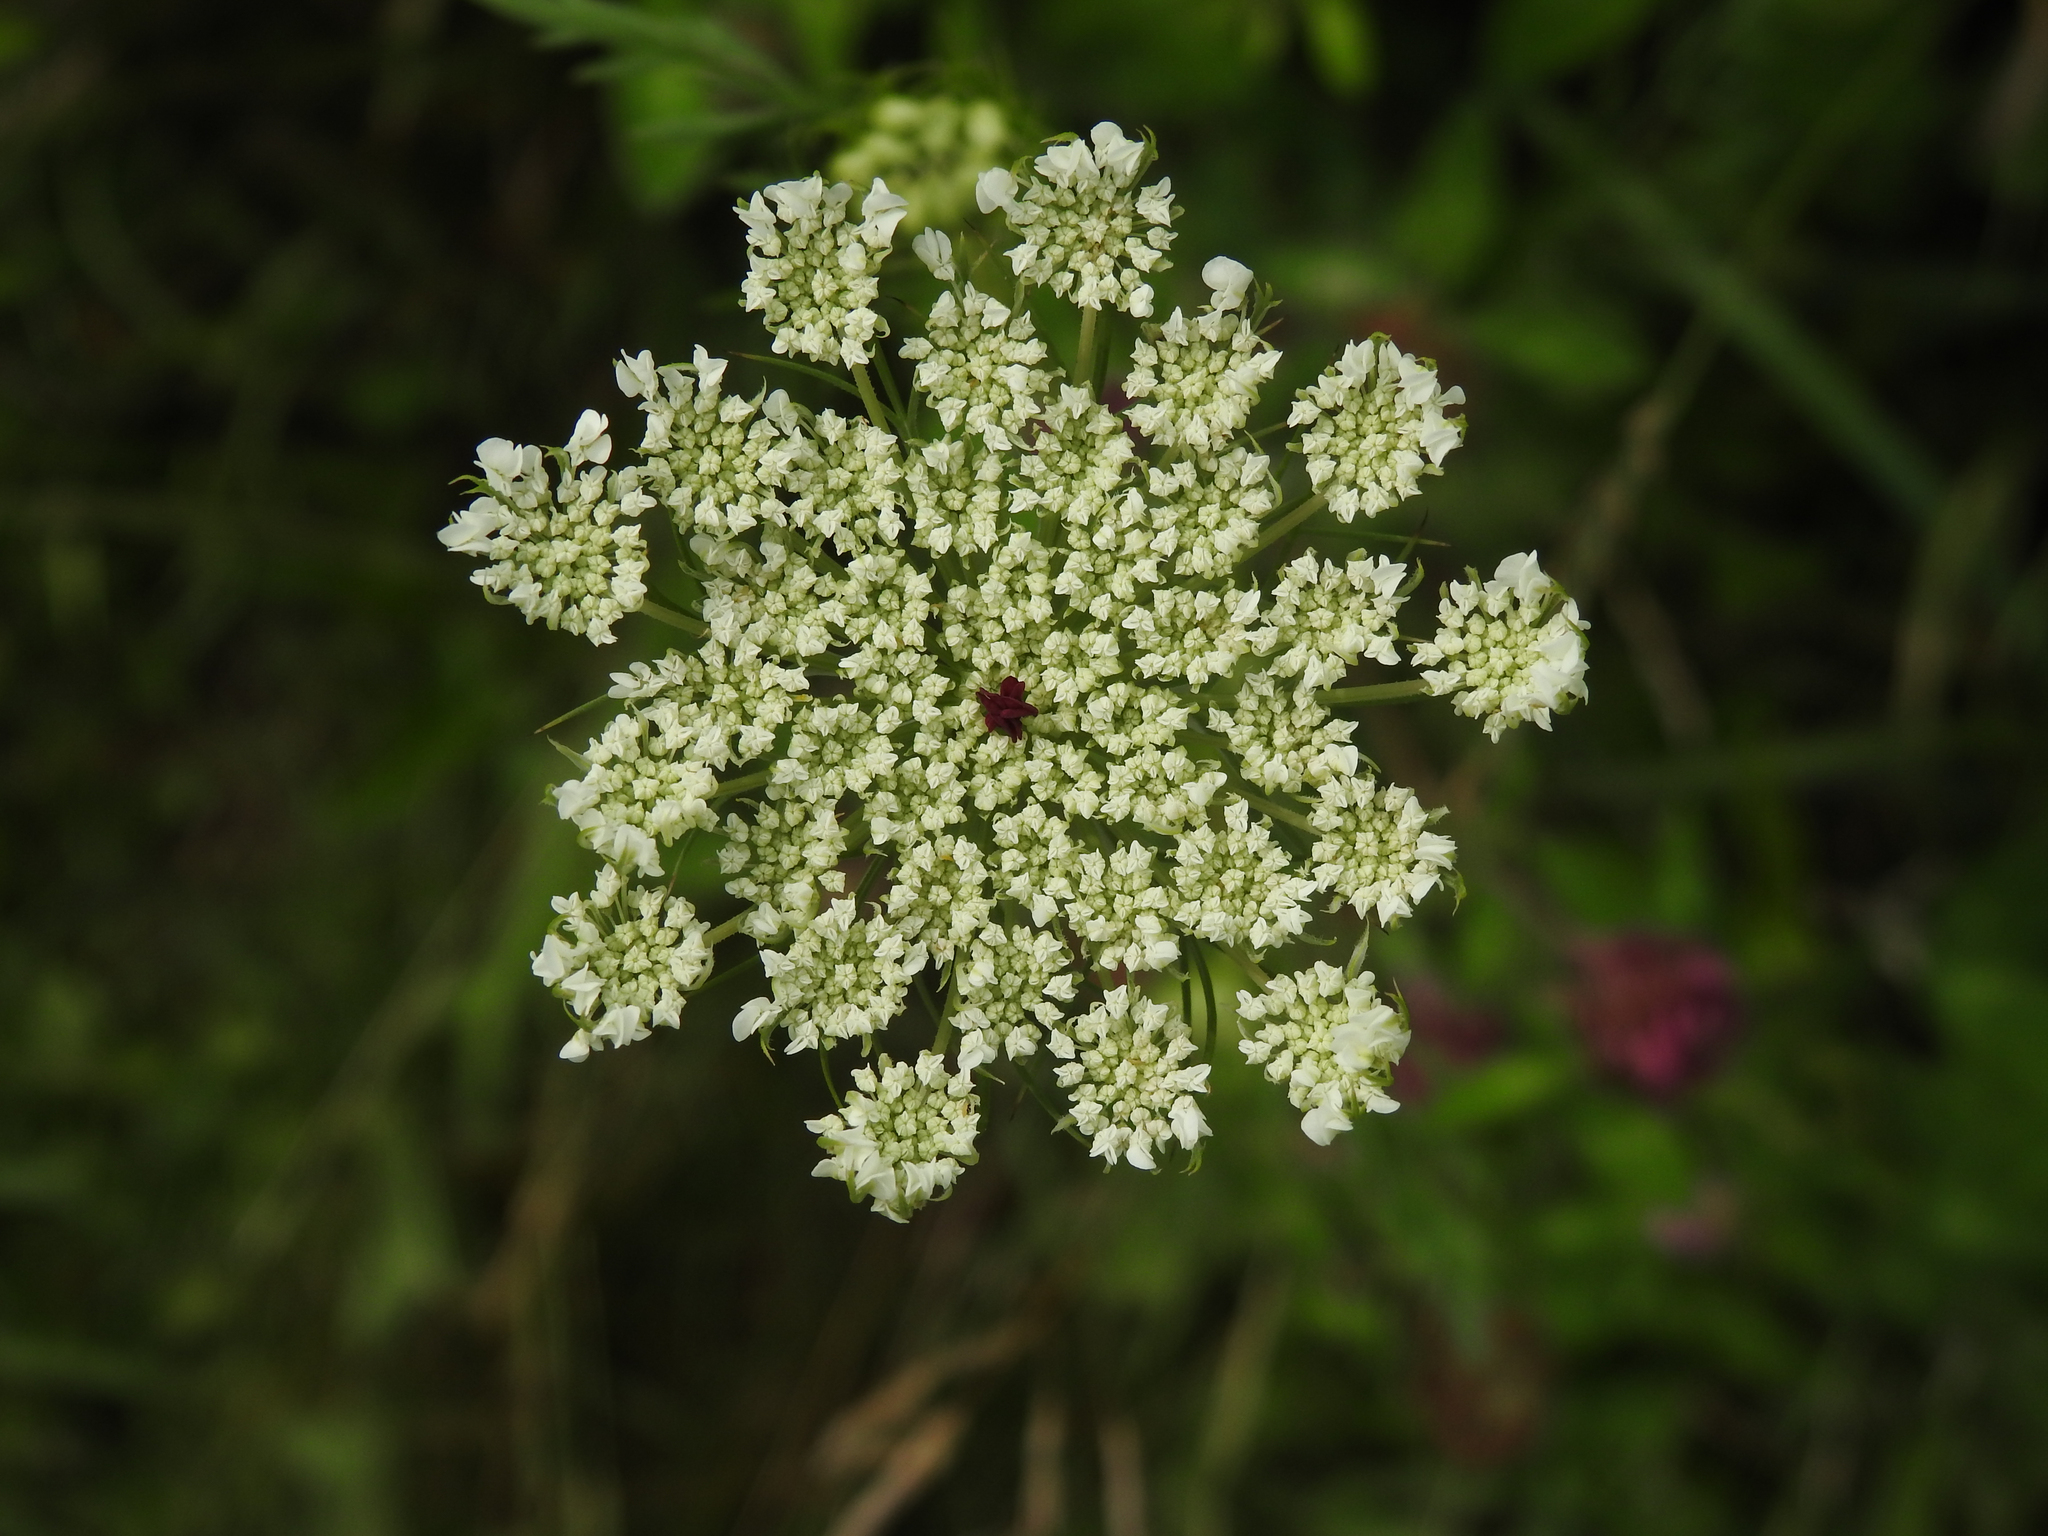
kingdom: Plantae
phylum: Tracheophyta
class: Magnoliopsida
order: Apiales
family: Apiaceae
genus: Daucus
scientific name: Daucus carota
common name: Wild carrot
